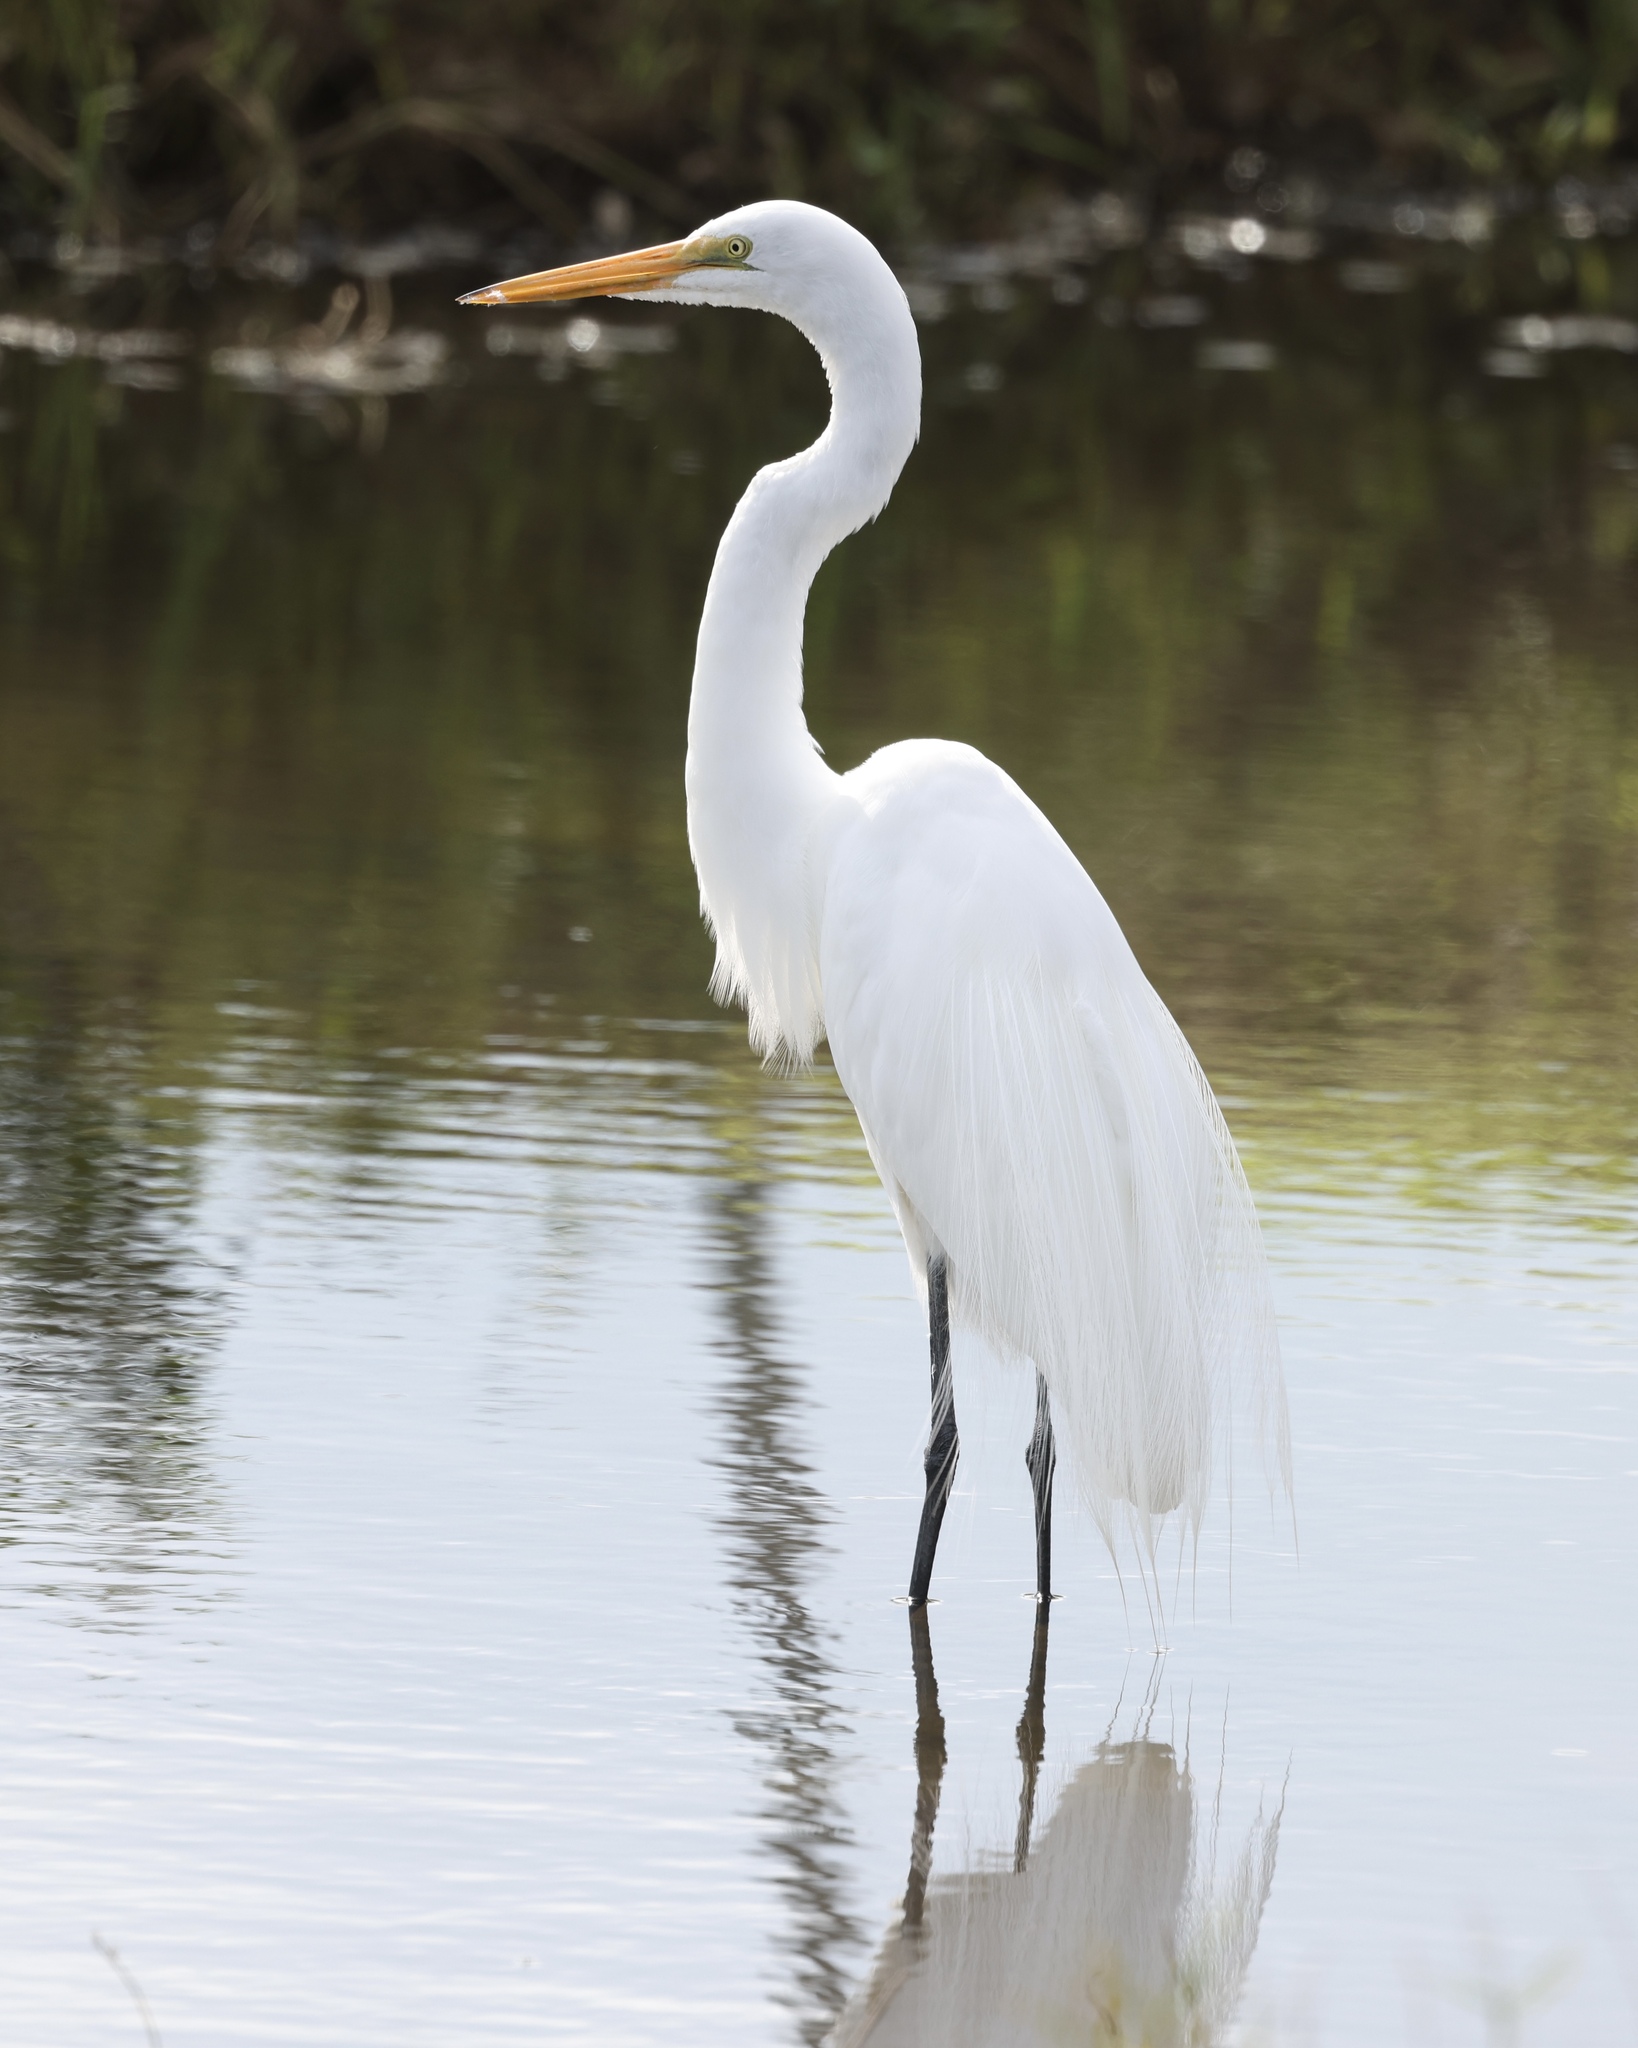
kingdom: Animalia
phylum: Chordata
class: Aves
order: Pelecaniformes
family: Ardeidae
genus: Ardea
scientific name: Ardea alba
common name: Great egret
